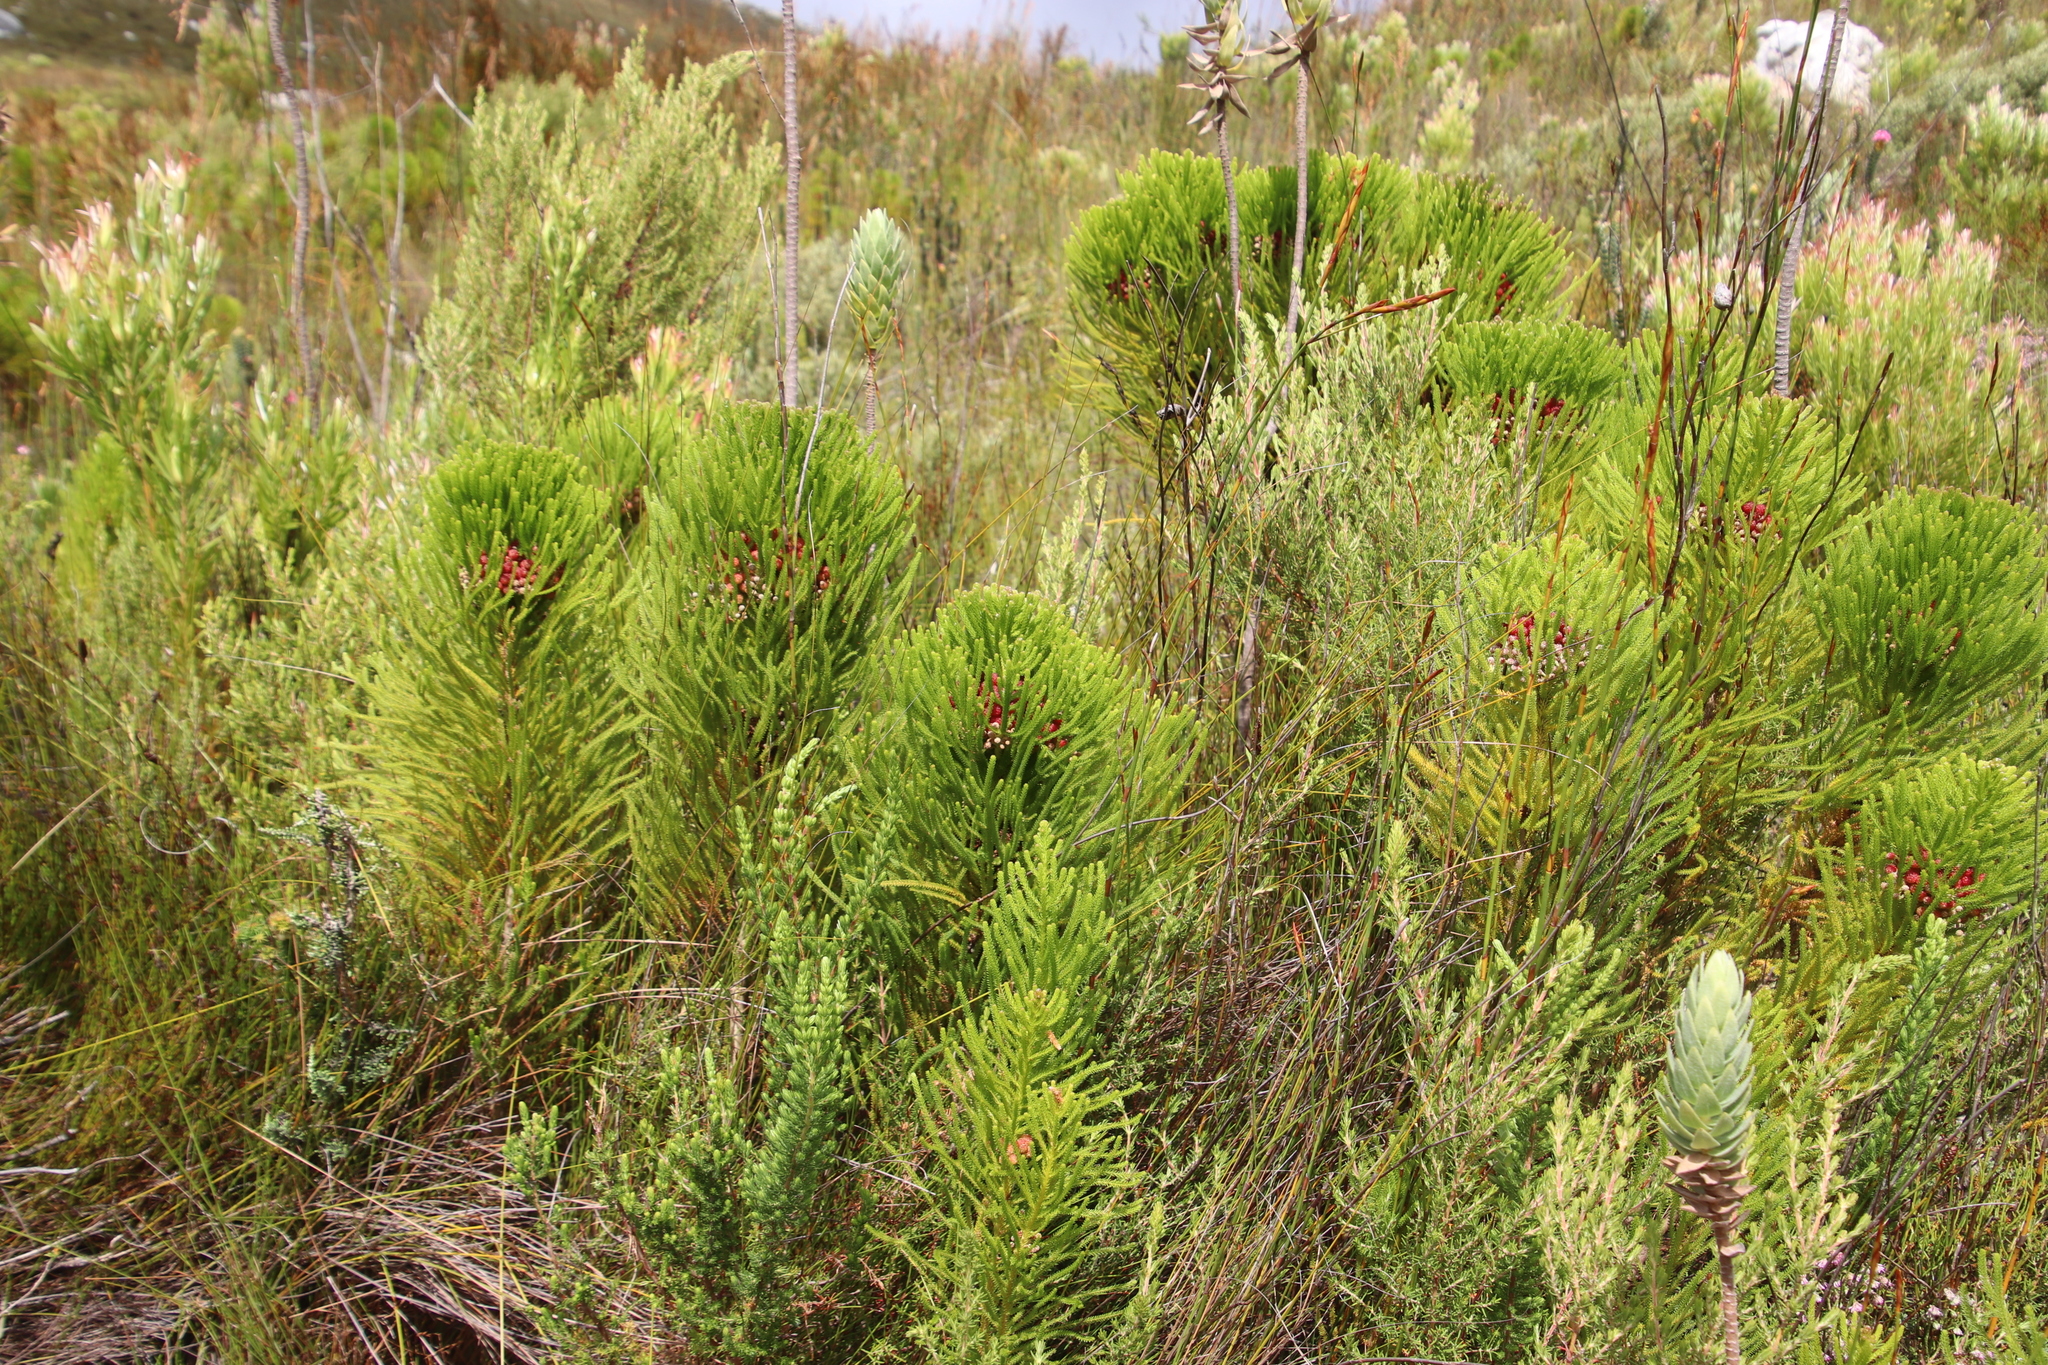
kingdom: Plantae
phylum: Tracheophyta
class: Magnoliopsida
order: Bruniales
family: Bruniaceae
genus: Berzelia
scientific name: Berzelia alopecurioides
